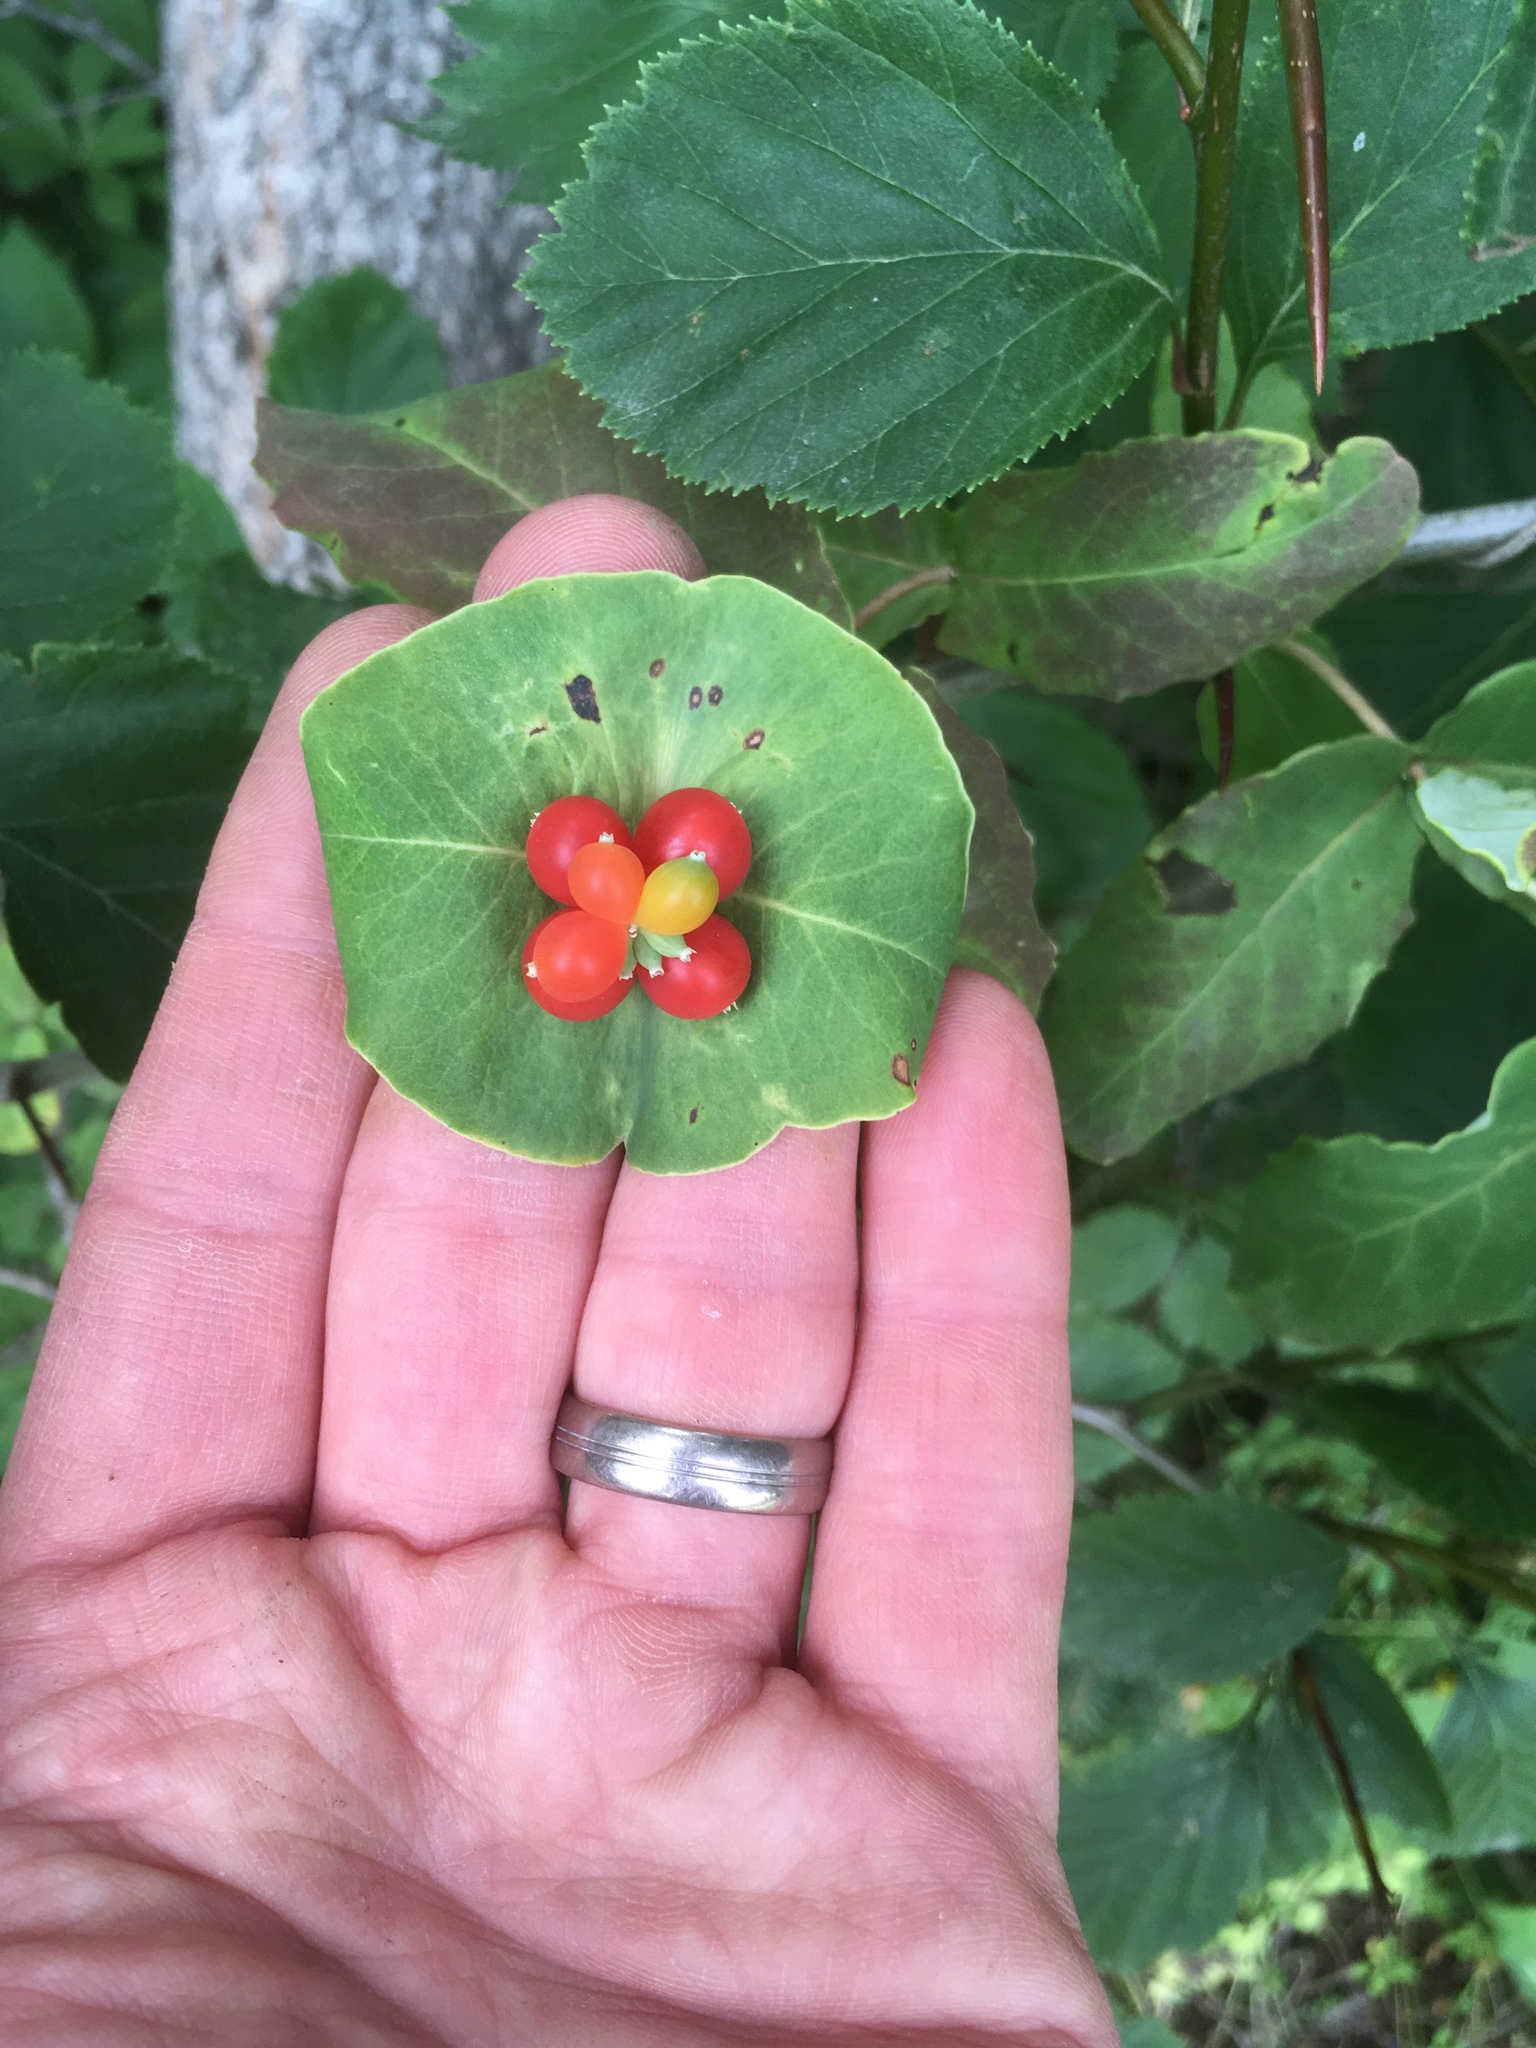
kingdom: Plantae
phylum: Tracheophyta
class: Magnoliopsida
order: Dipsacales
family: Caprifoliaceae
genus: Lonicera
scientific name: Lonicera dioica
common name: Limber honeysuckle
